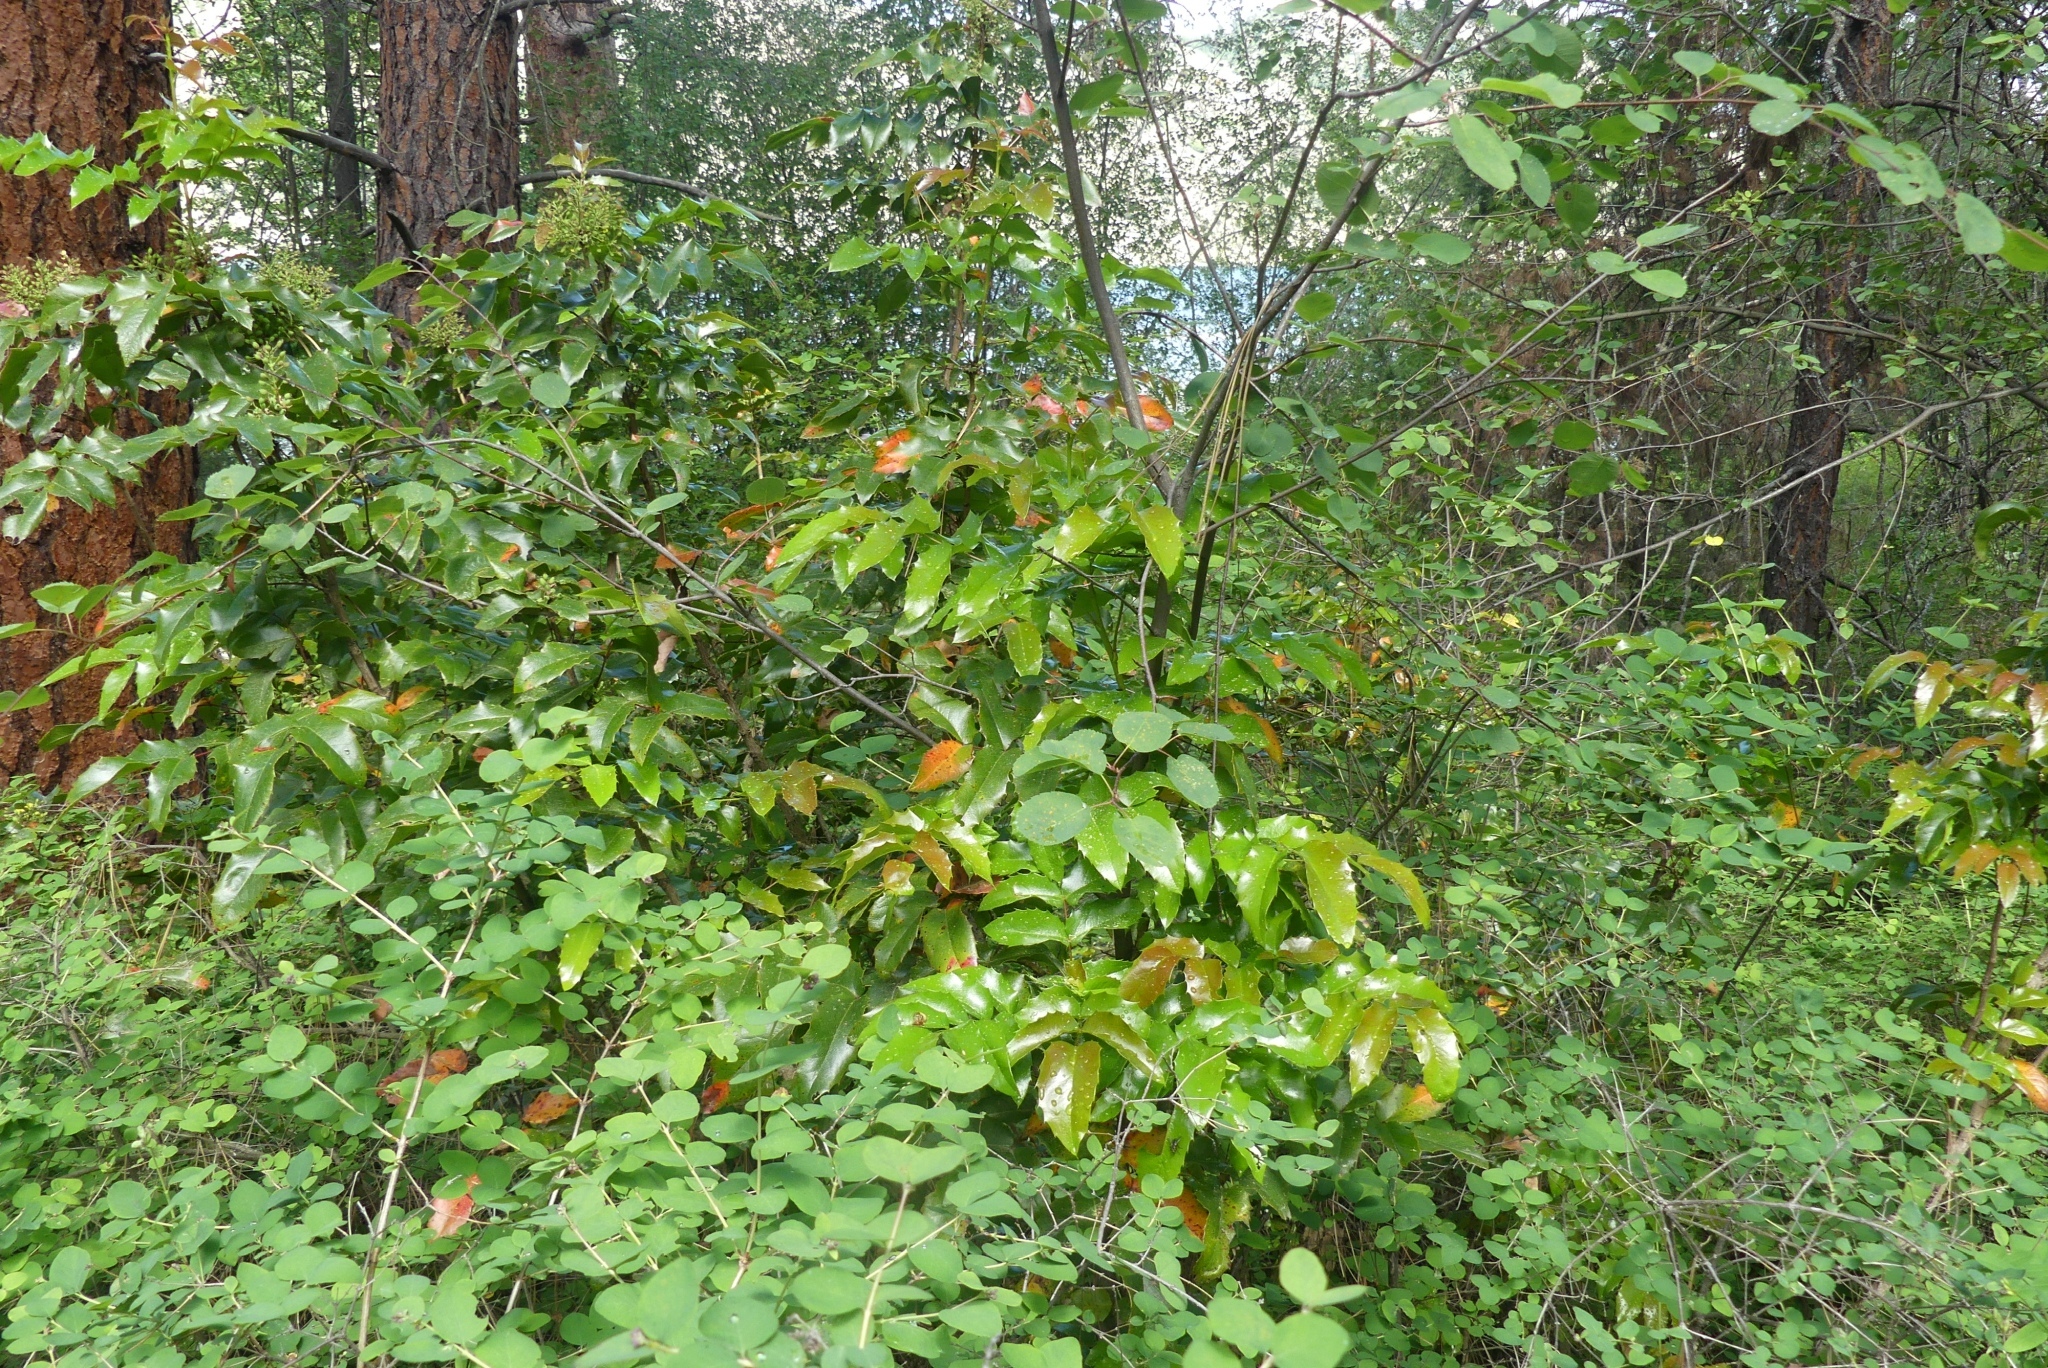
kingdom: Plantae
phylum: Tracheophyta
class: Magnoliopsida
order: Ranunculales
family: Berberidaceae
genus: Mahonia
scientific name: Mahonia aquifolium
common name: Oregon-grape
